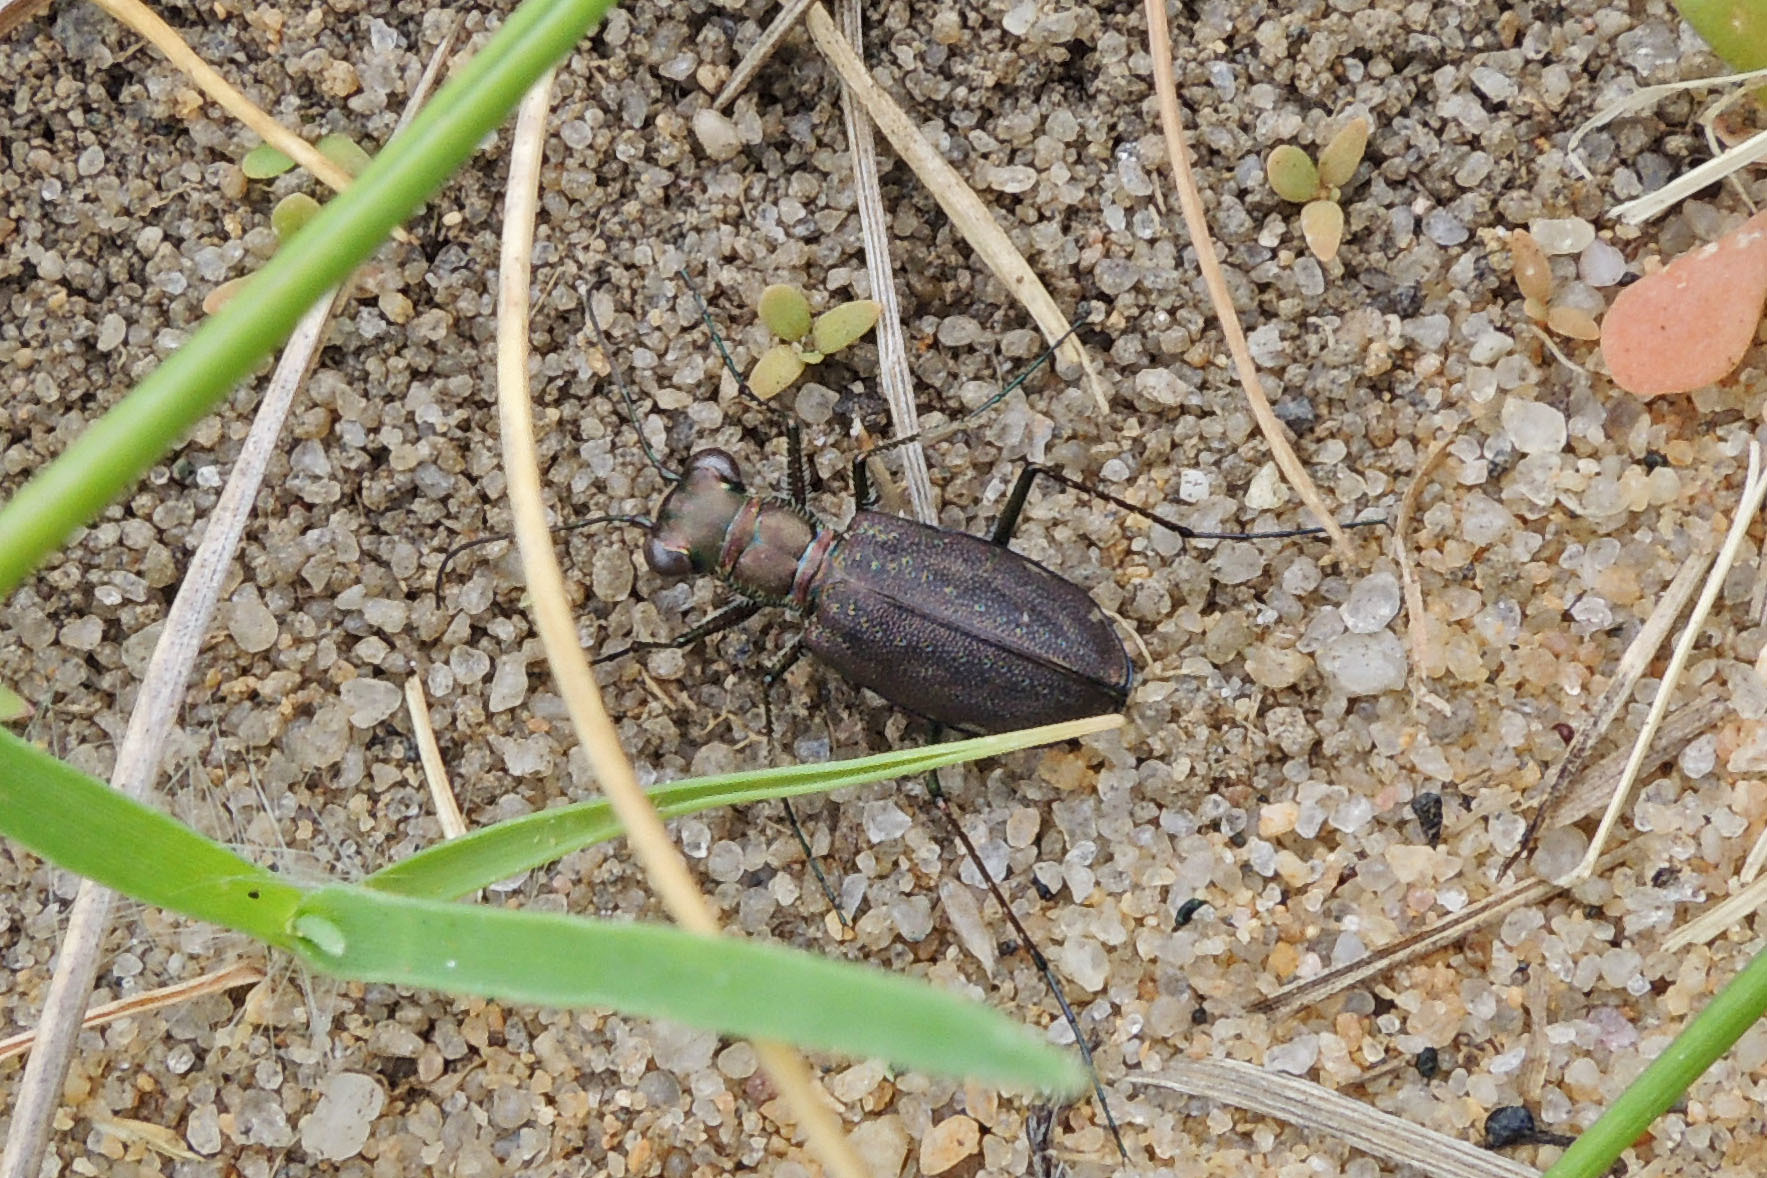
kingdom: Animalia
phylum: Arthropoda
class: Insecta
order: Coleoptera
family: Carabidae
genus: Cicindela
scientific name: Cicindela punctulata
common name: Punctured tiger beetle
